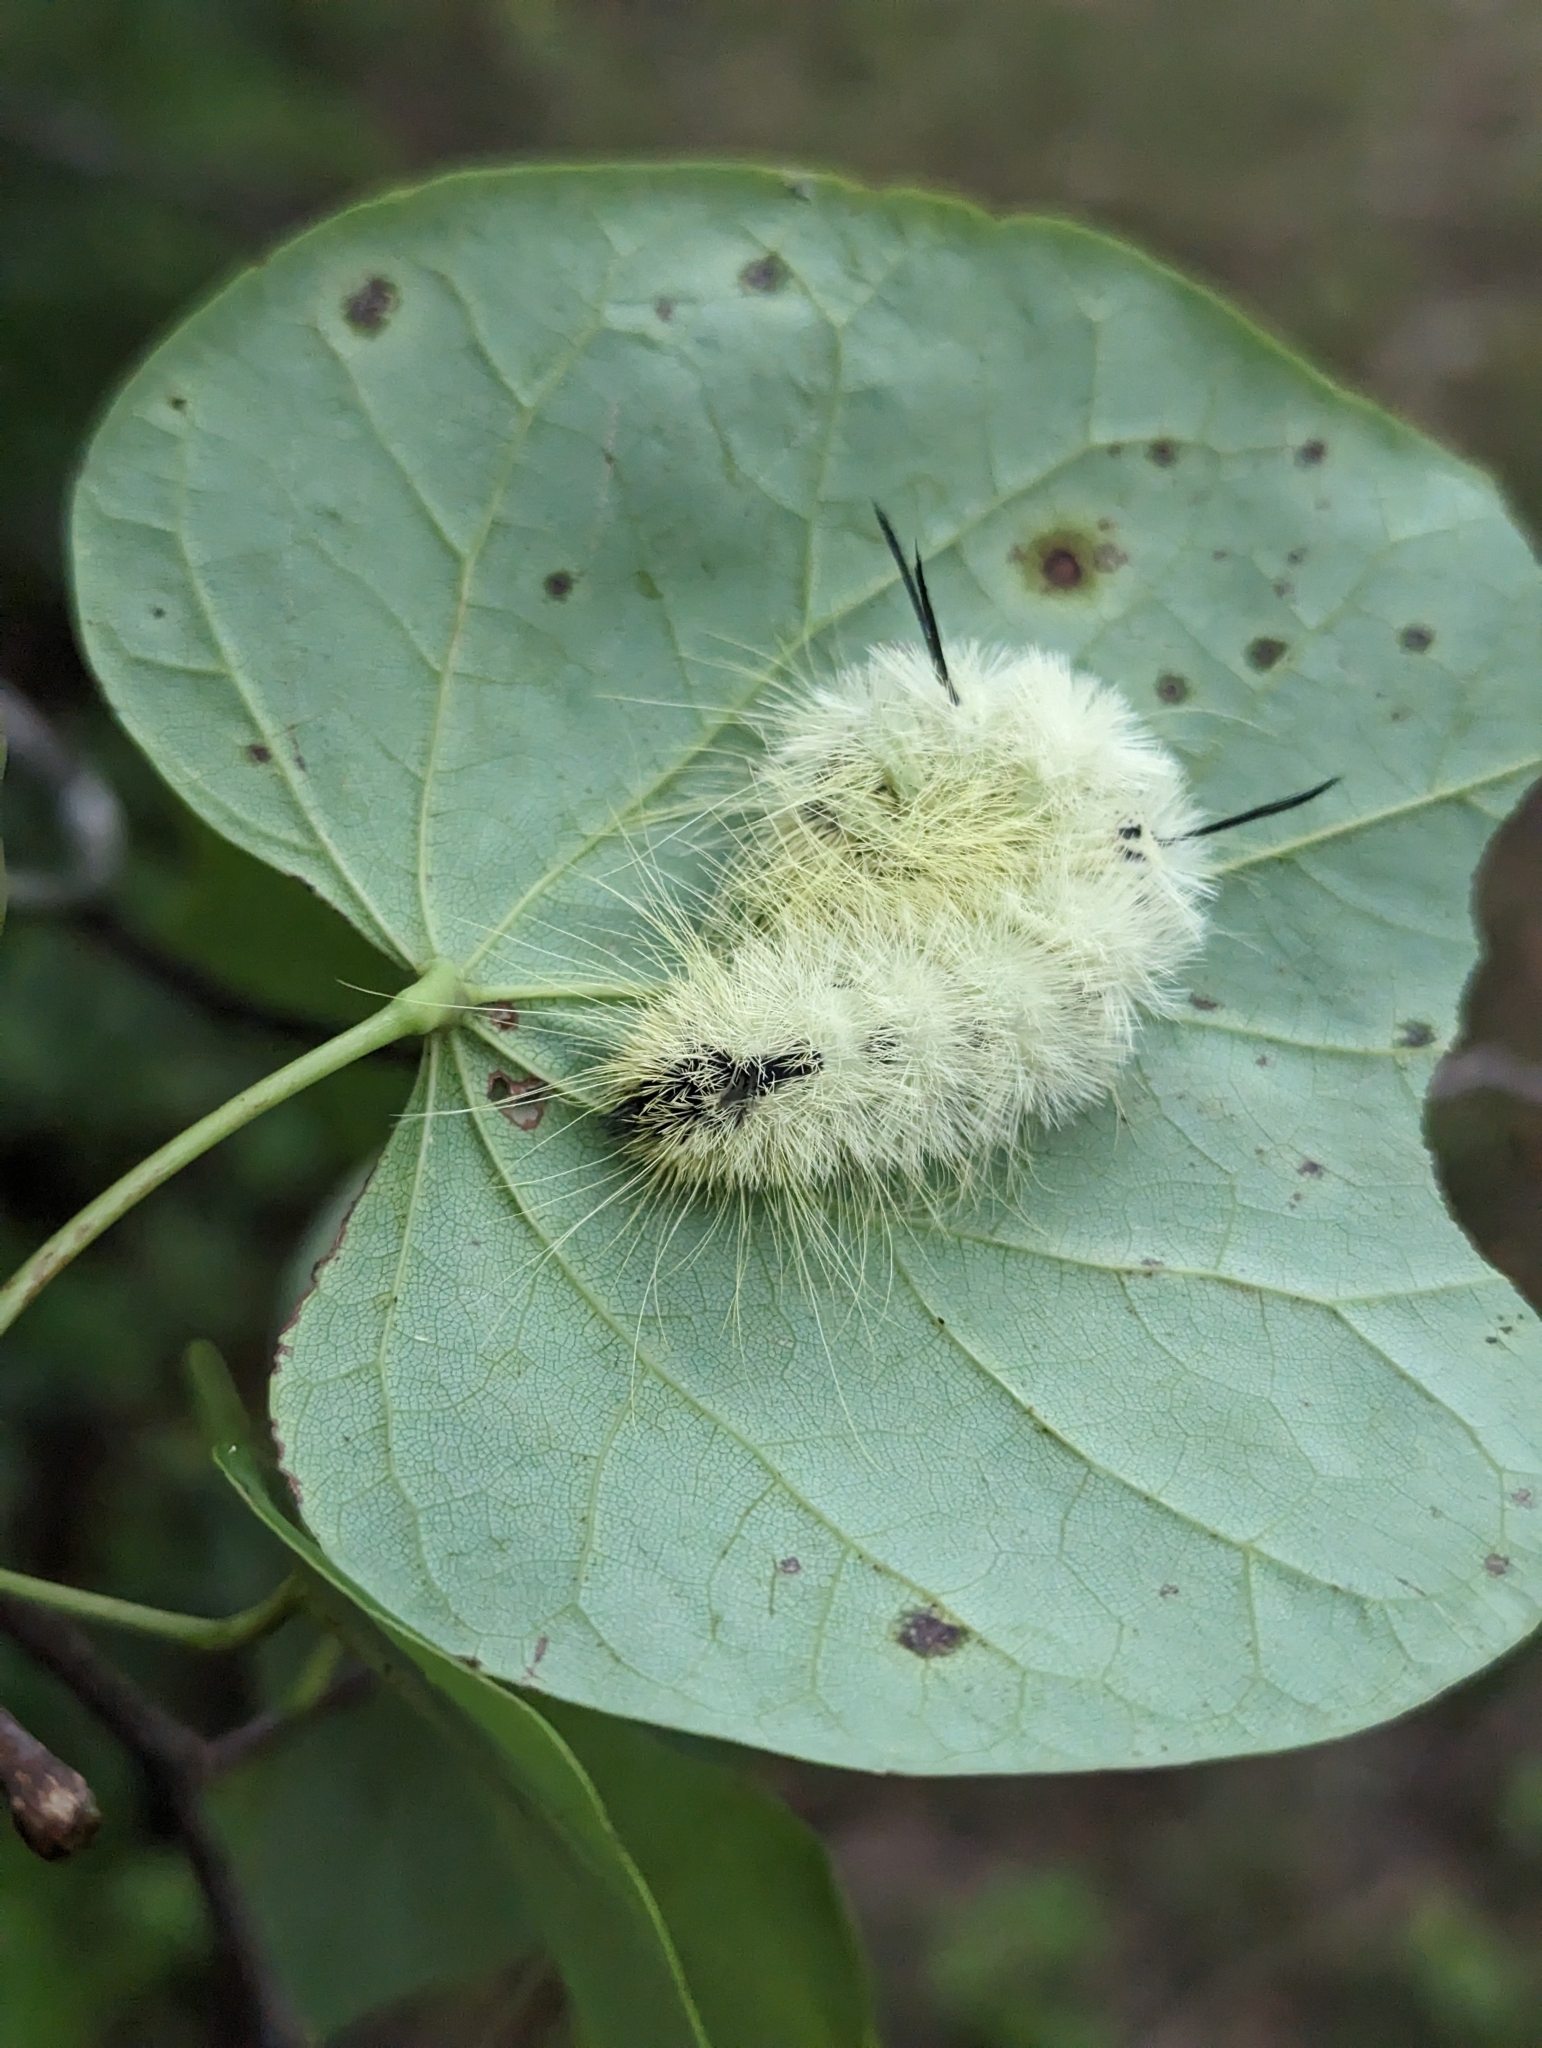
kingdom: Animalia
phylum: Arthropoda
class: Insecta
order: Lepidoptera
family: Noctuidae
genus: Acronicta
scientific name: Acronicta americana
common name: American dagger
